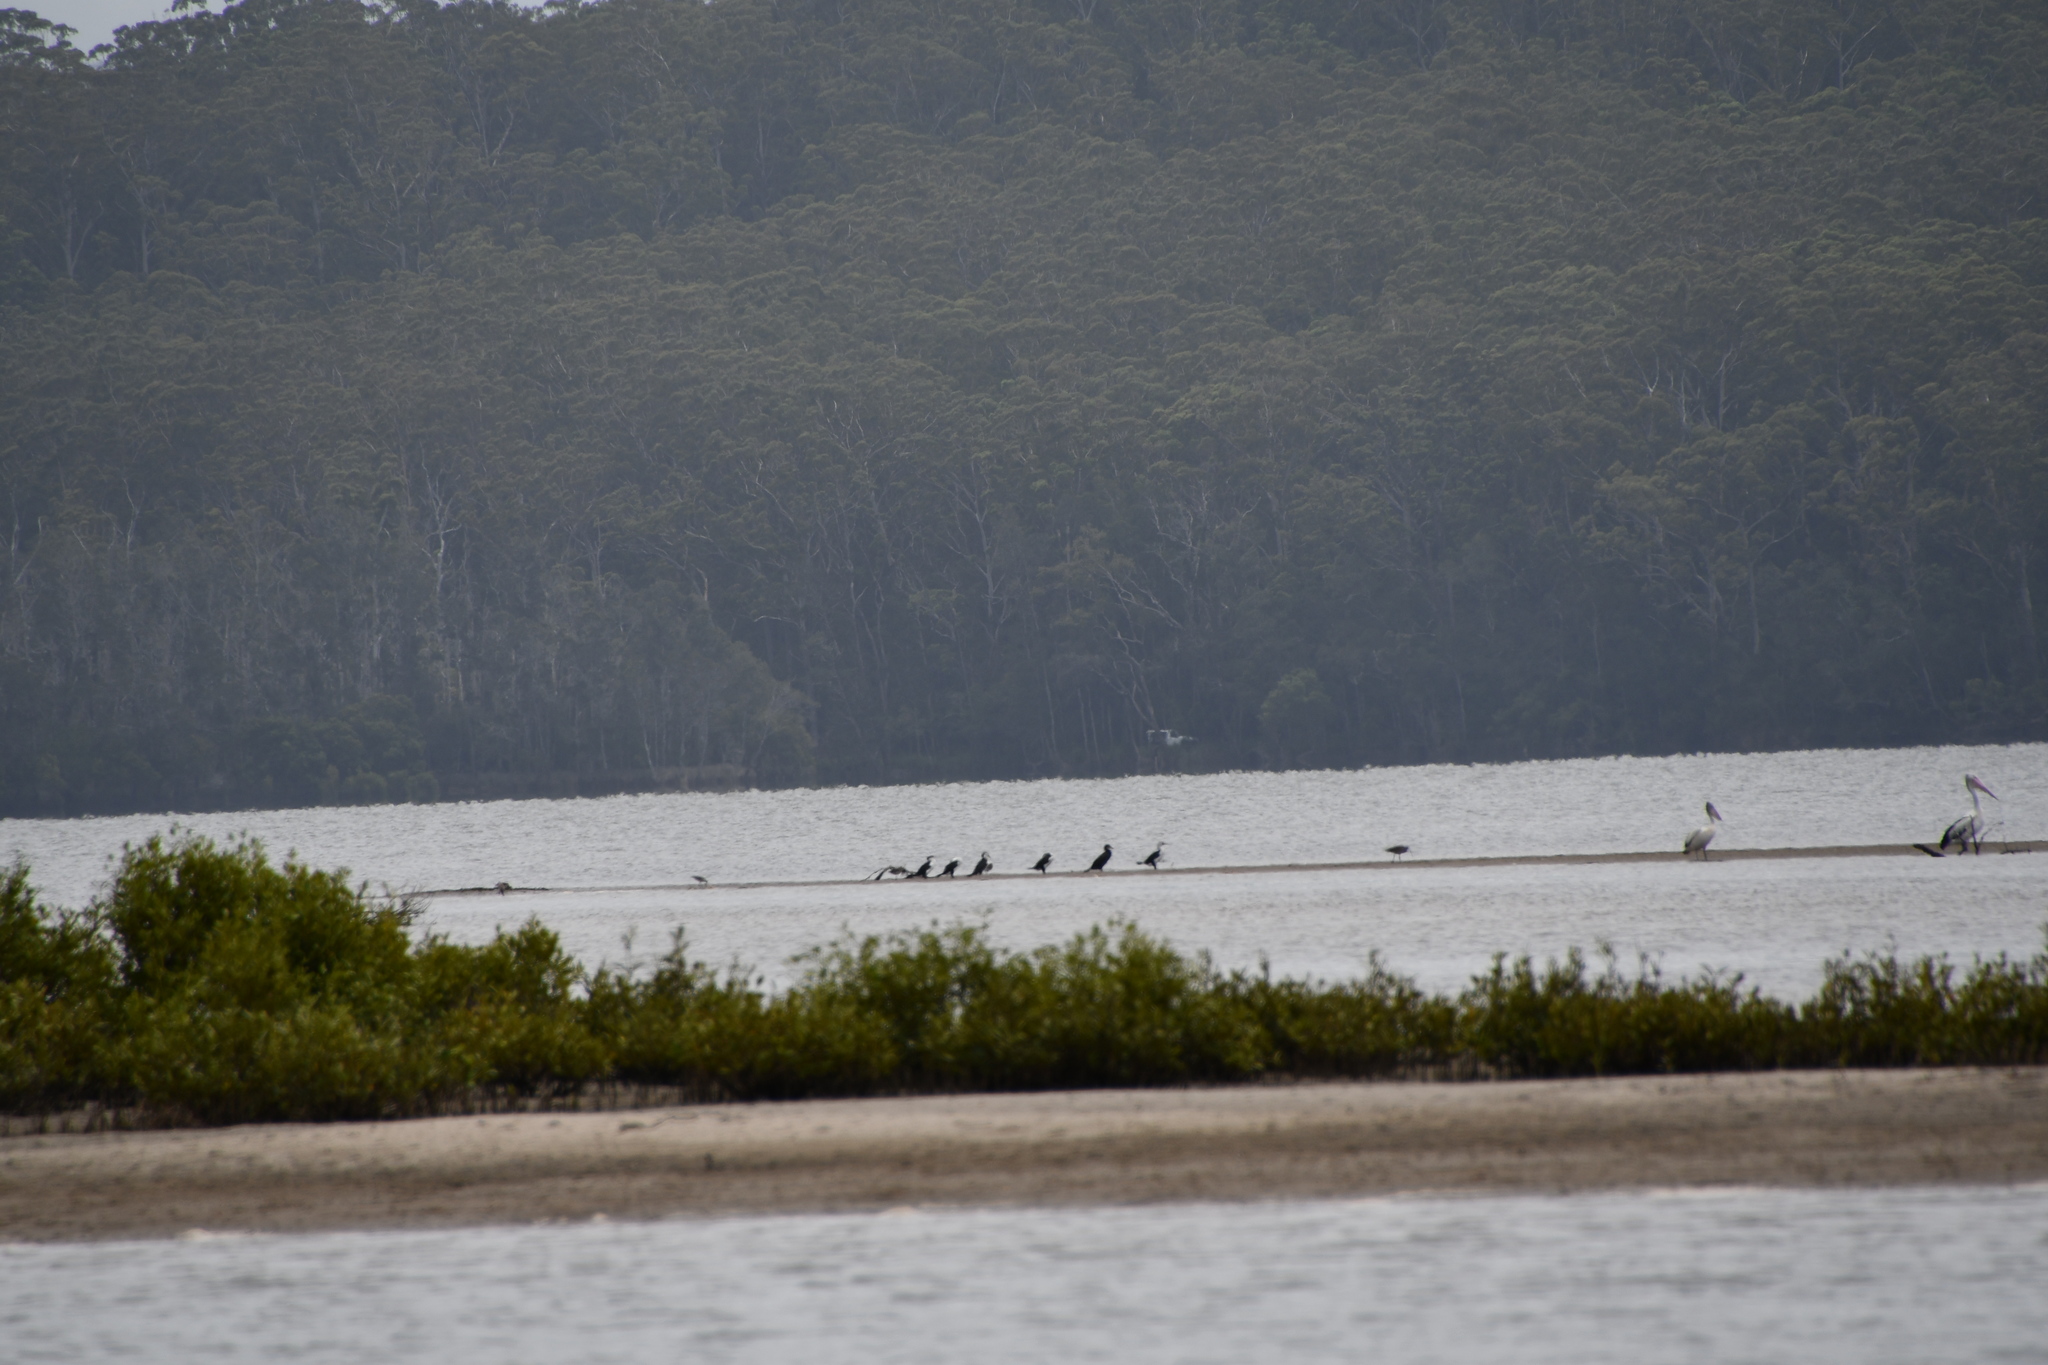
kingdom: Animalia
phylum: Chordata
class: Aves
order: Suliformes
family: Phalacrocoracidae
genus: Phalacrocorax
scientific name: Phalacrocorax varius
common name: Pied cormorant
